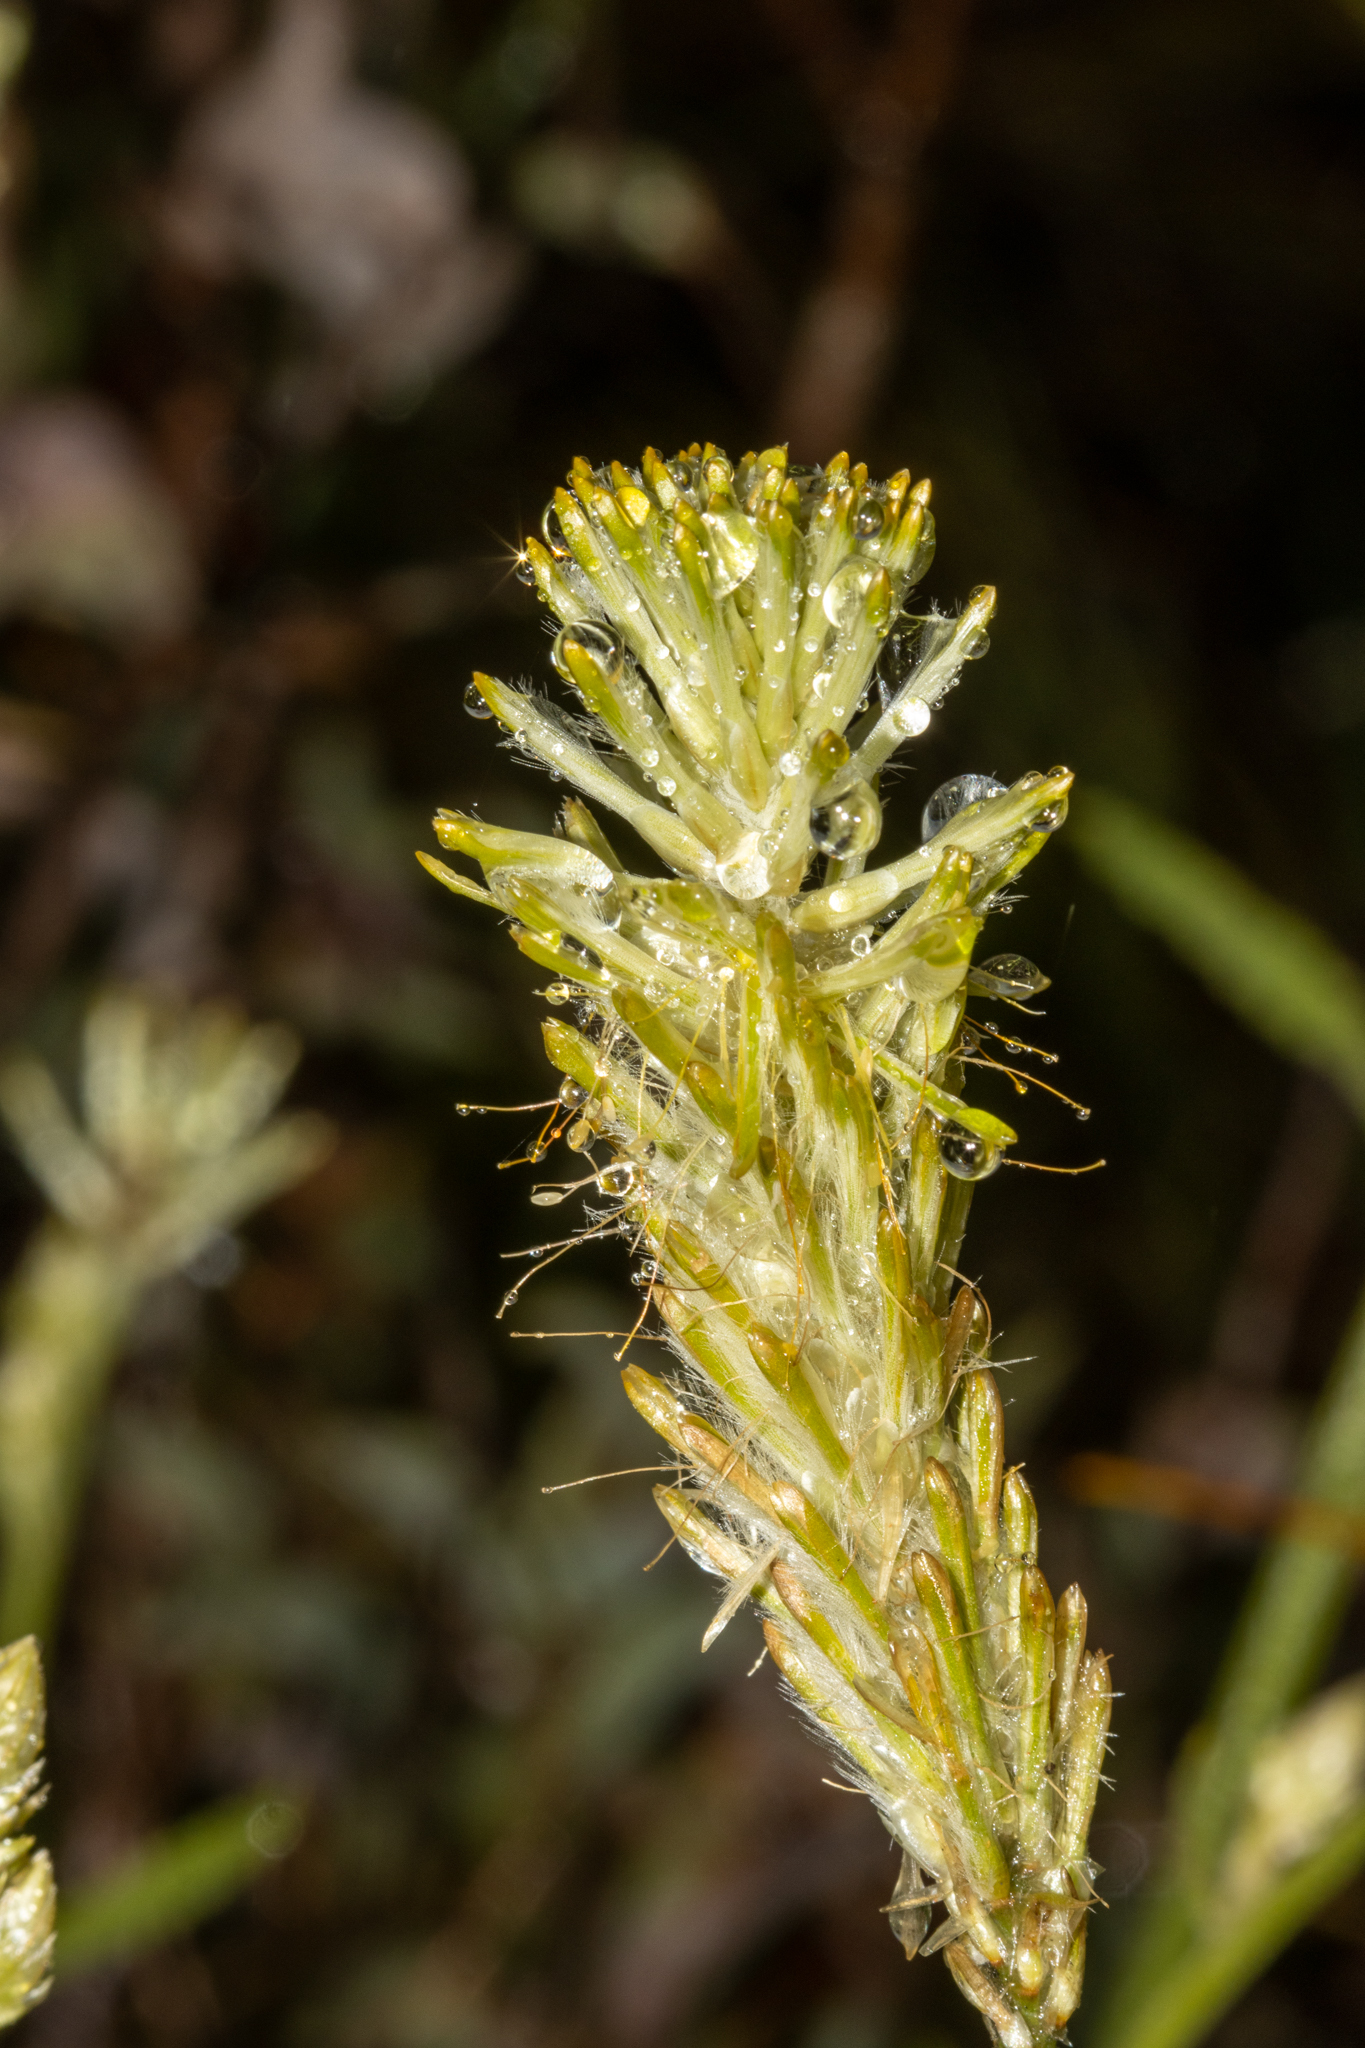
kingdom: Plantae
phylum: Tracheophyta
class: Magnoliopsida
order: Caryophyllales
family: Amaranthaceae
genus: Ptilotus
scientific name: Ptilotus polystachyus
